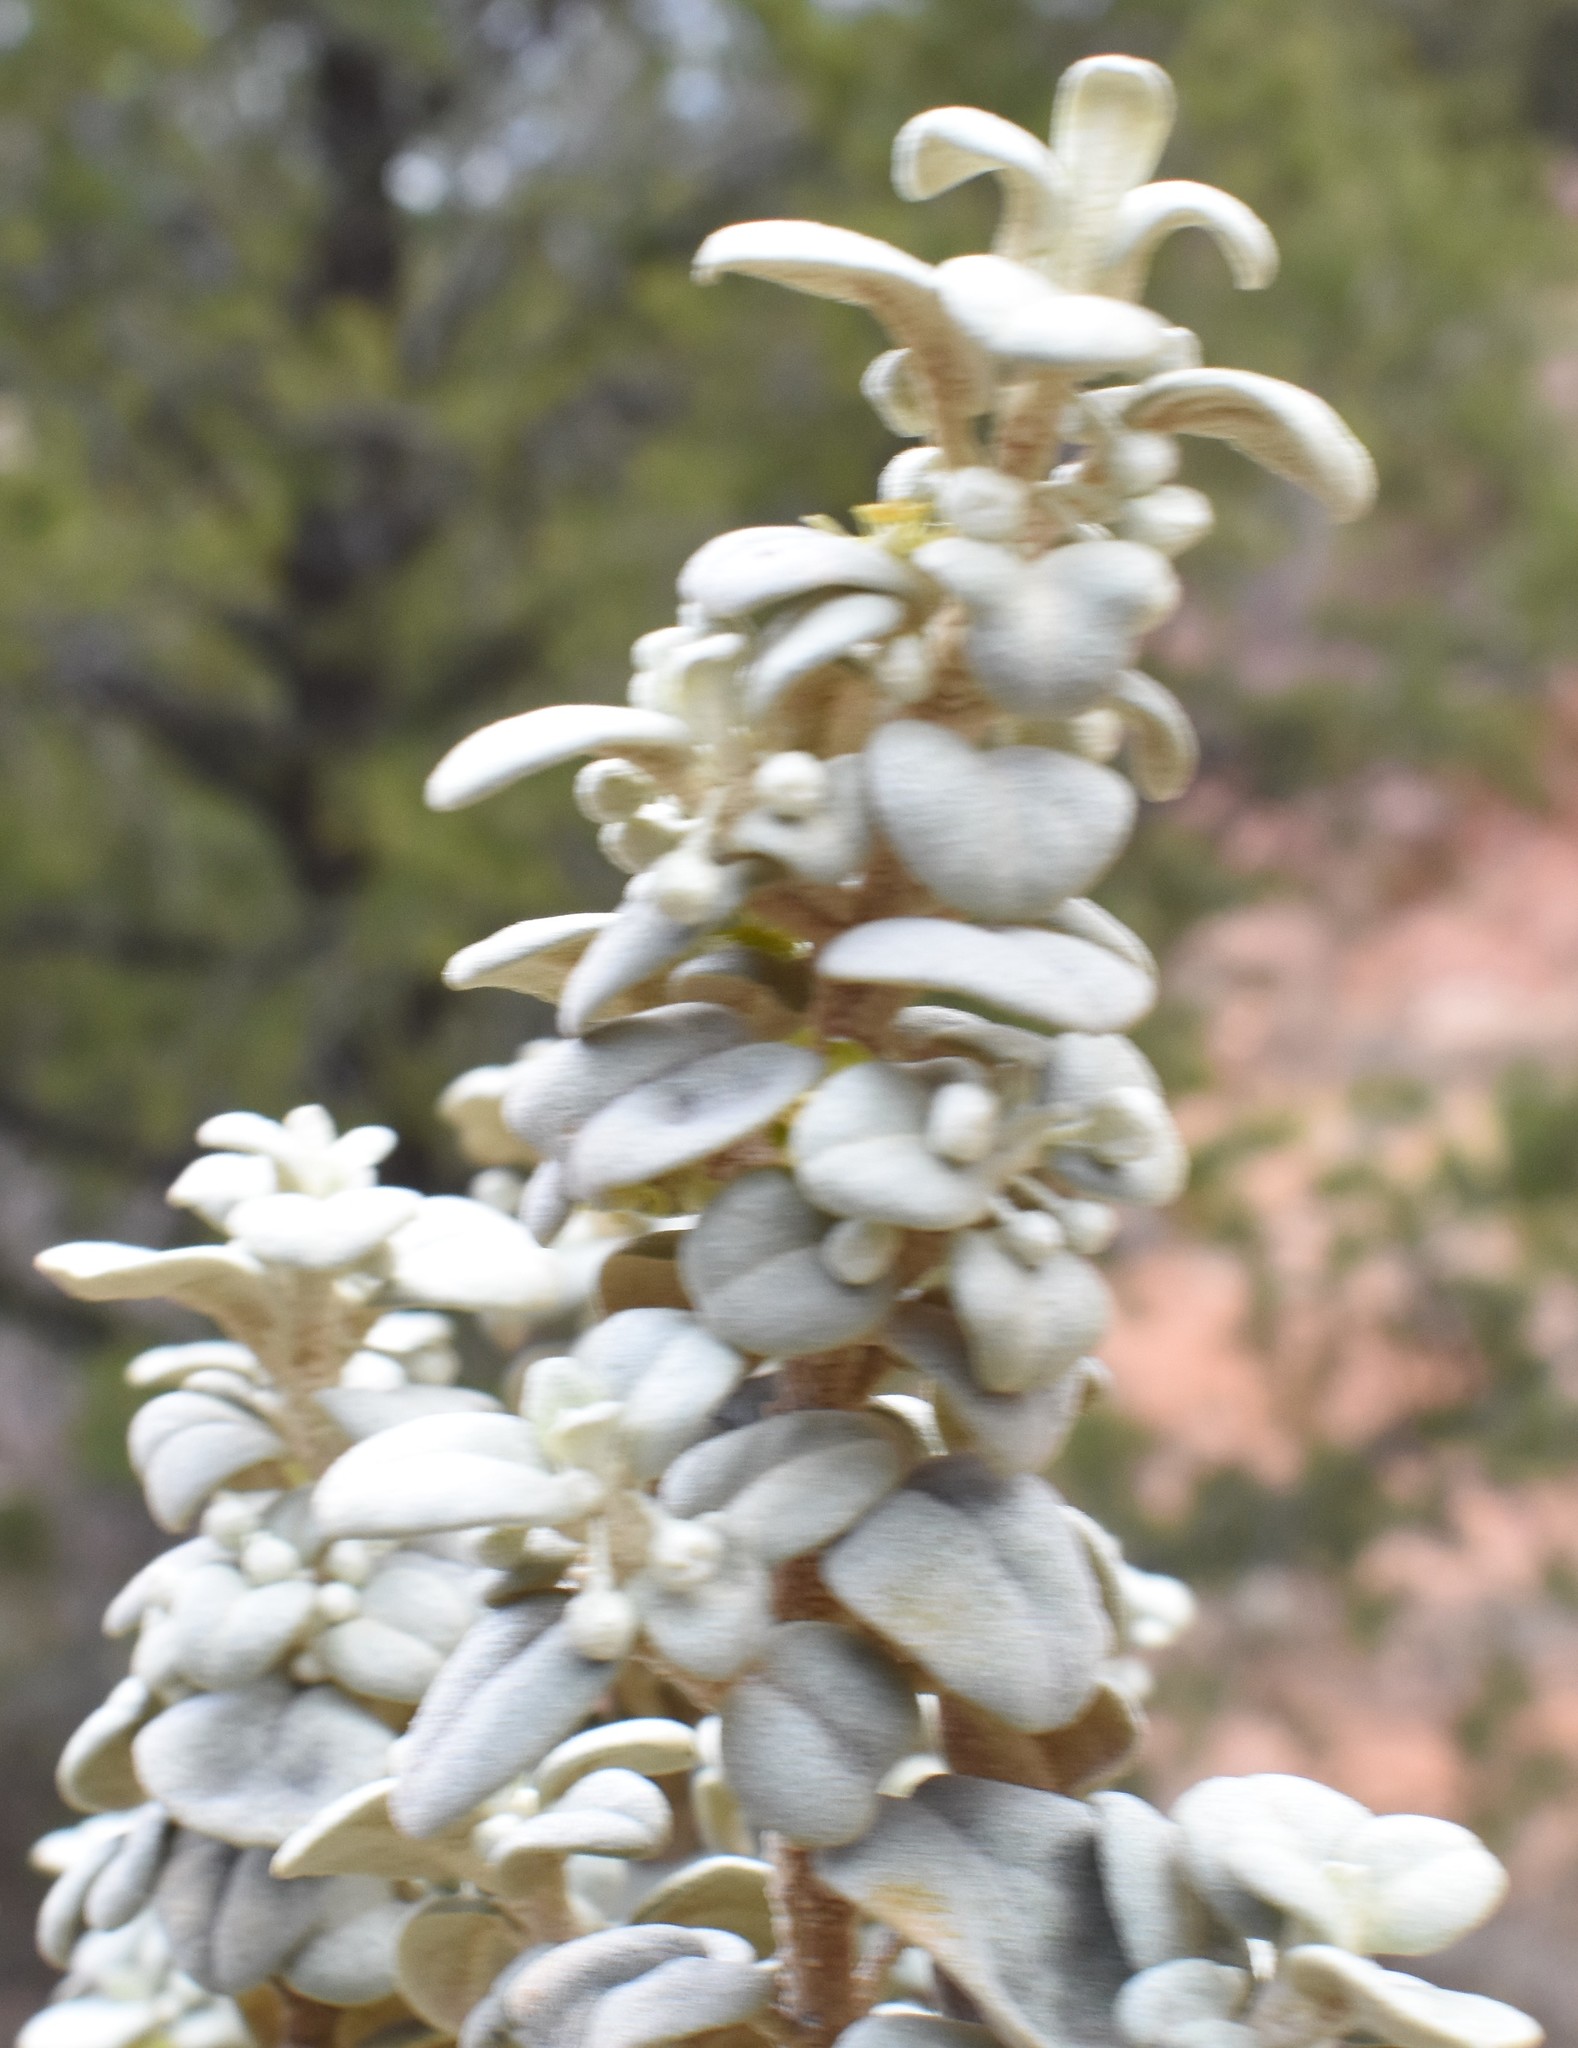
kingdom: Plantae
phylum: Tracheophyta
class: Magnoliopsida
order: Rosales
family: Elaeagnaceae
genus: Shepherdia
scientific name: Shepherdia rotundifolia
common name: Silverscale
